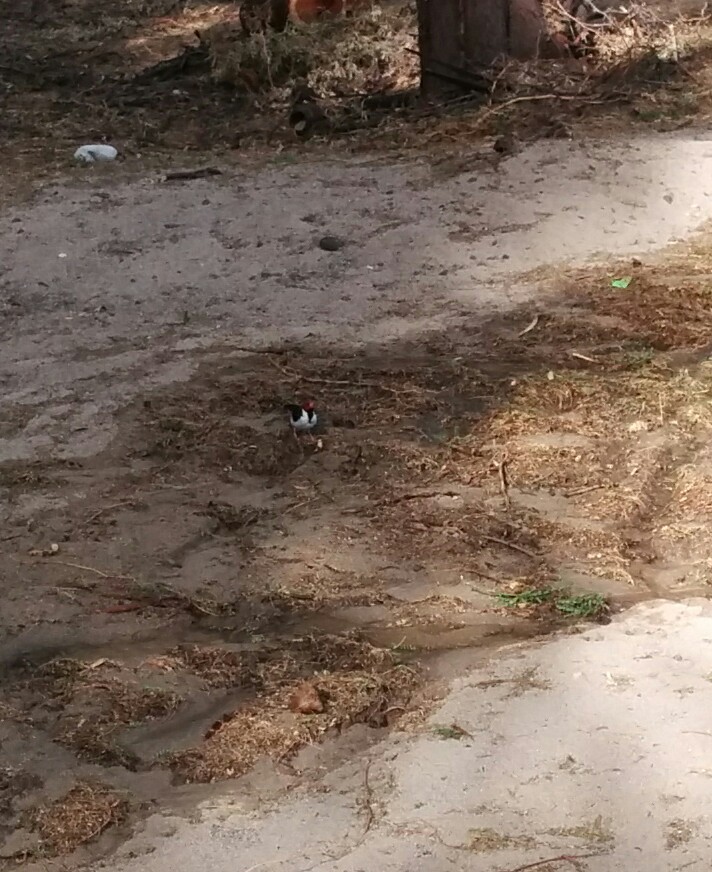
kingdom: Animalia
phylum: Chordata
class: Aves
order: Passeriformes
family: Thraupidae
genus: Paroaria
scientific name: Paroaria capitata
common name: Yellow-billed cardinal
